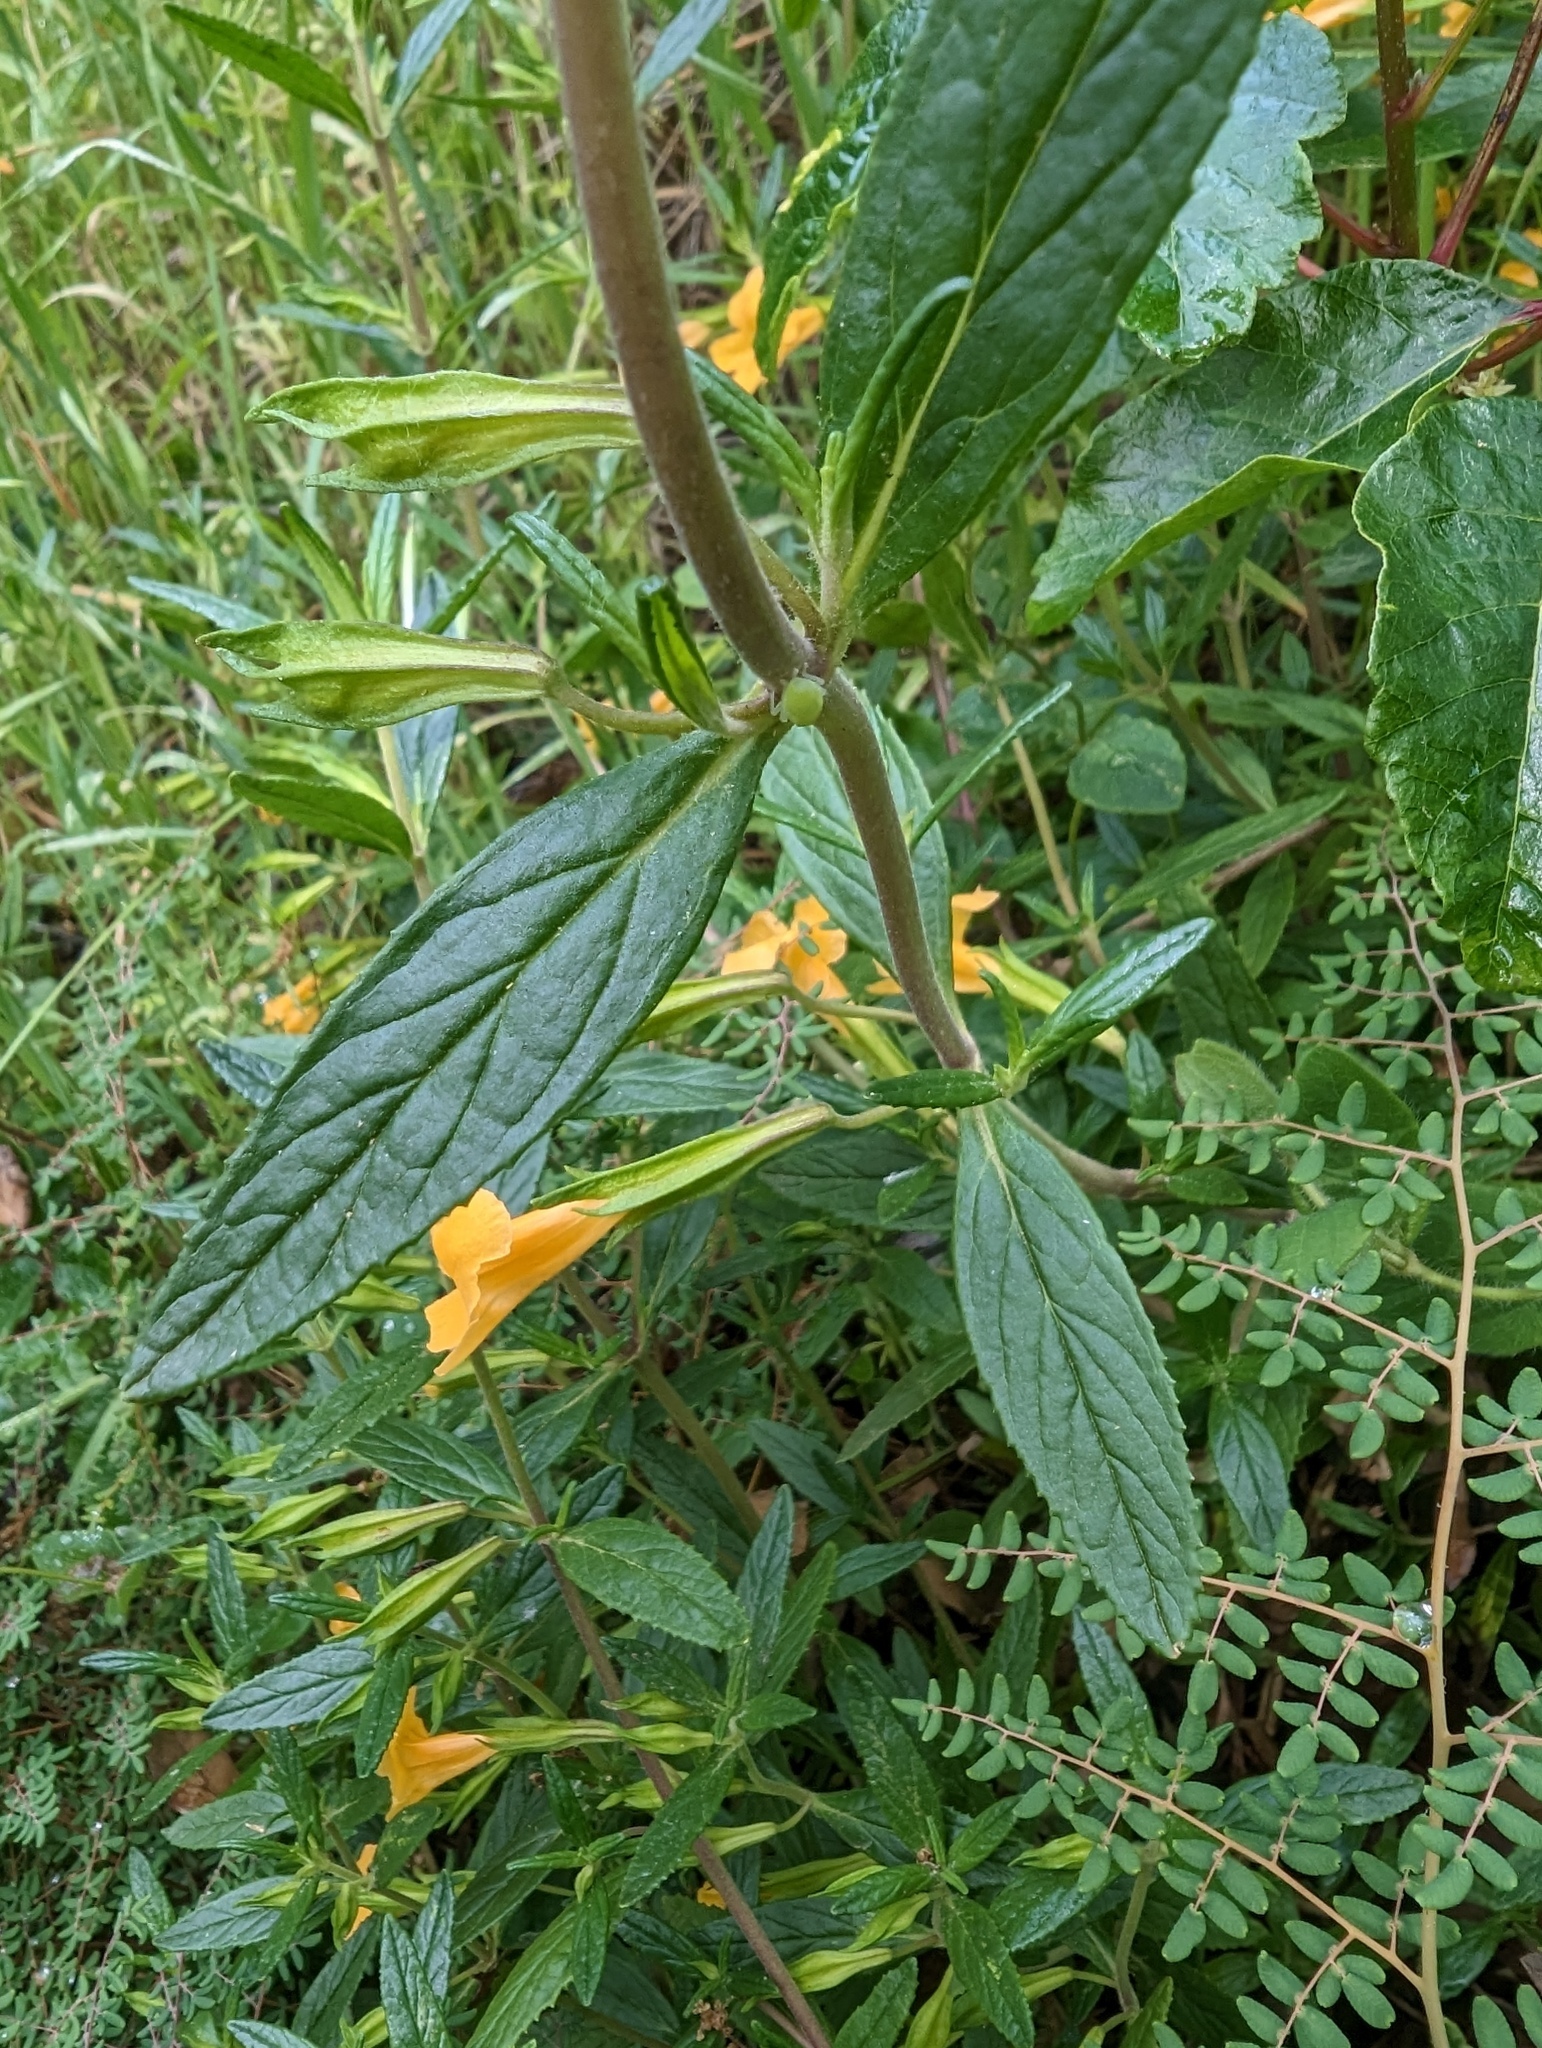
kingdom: Plantae
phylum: Tracheophyta
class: Magnoliopsida
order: Lamiales
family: Phrymaceae
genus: Diplacus
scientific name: Diplacus aurantiacus
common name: Bush monkey-flower
